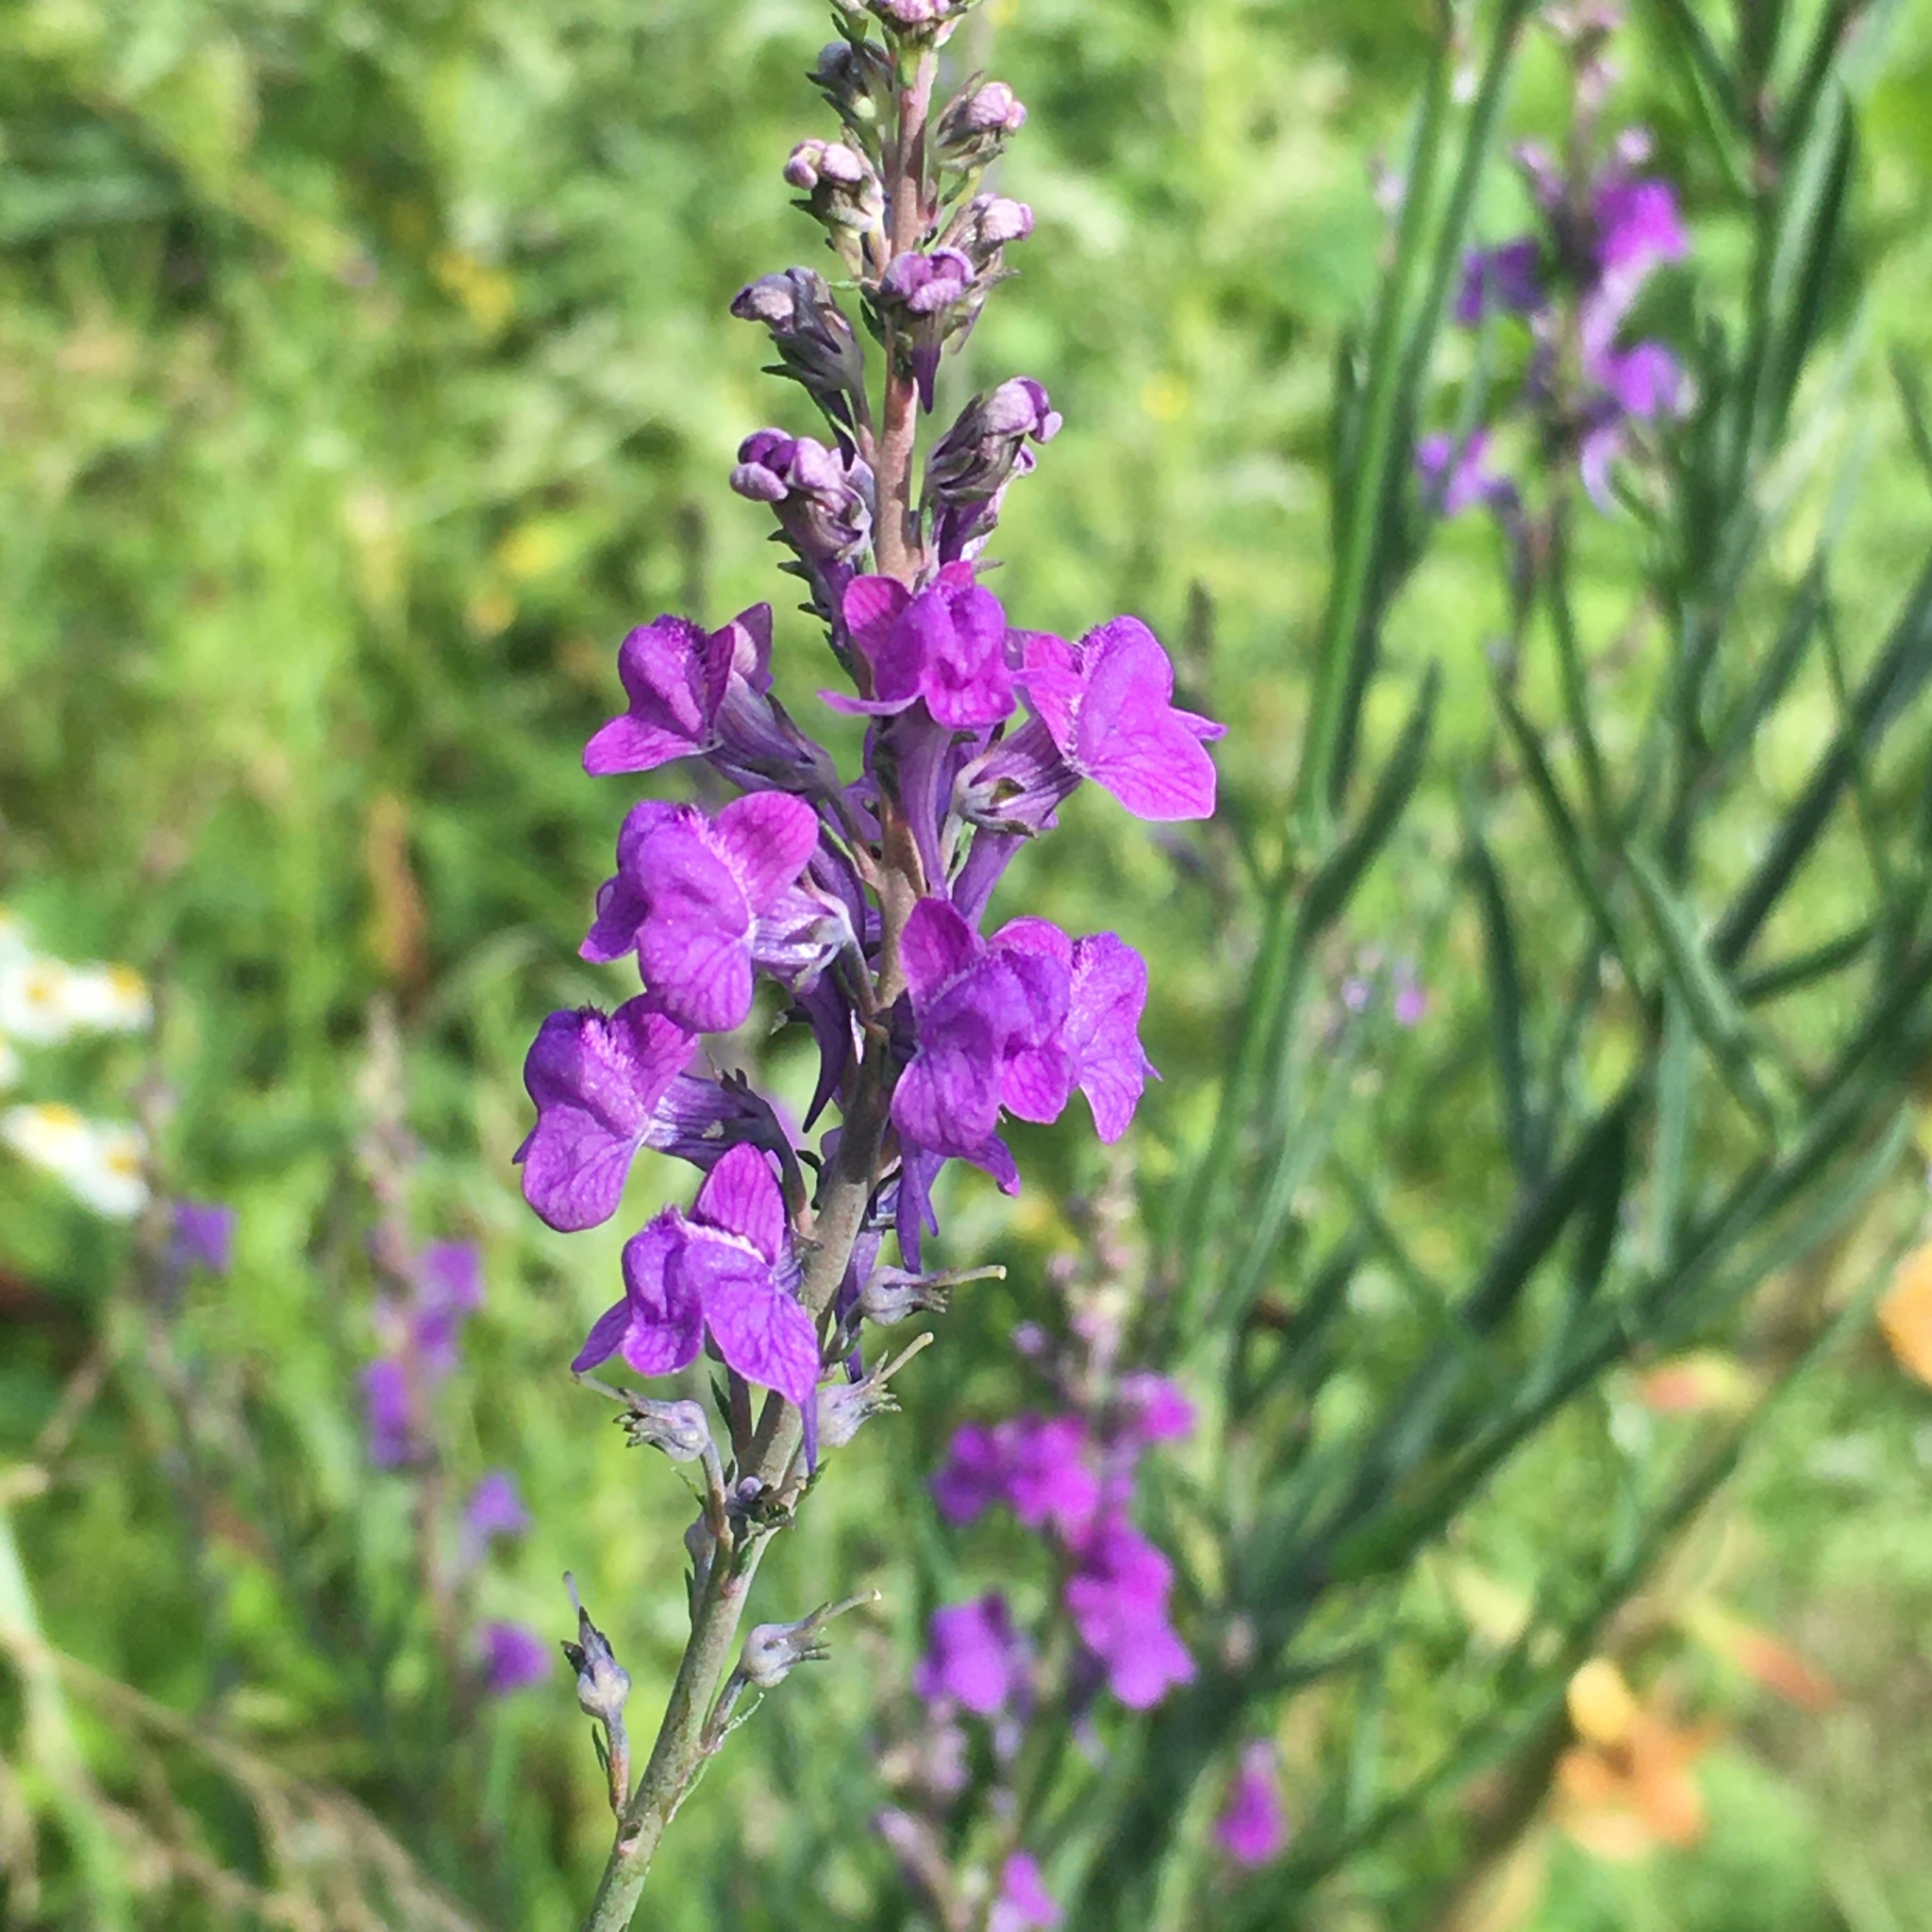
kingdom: Plantae
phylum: Tracheophyta
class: Magnoliopsida
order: Lamiales
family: Plantaginaceae
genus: Linaria
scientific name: Linaria purpurea
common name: Purple toadflax
